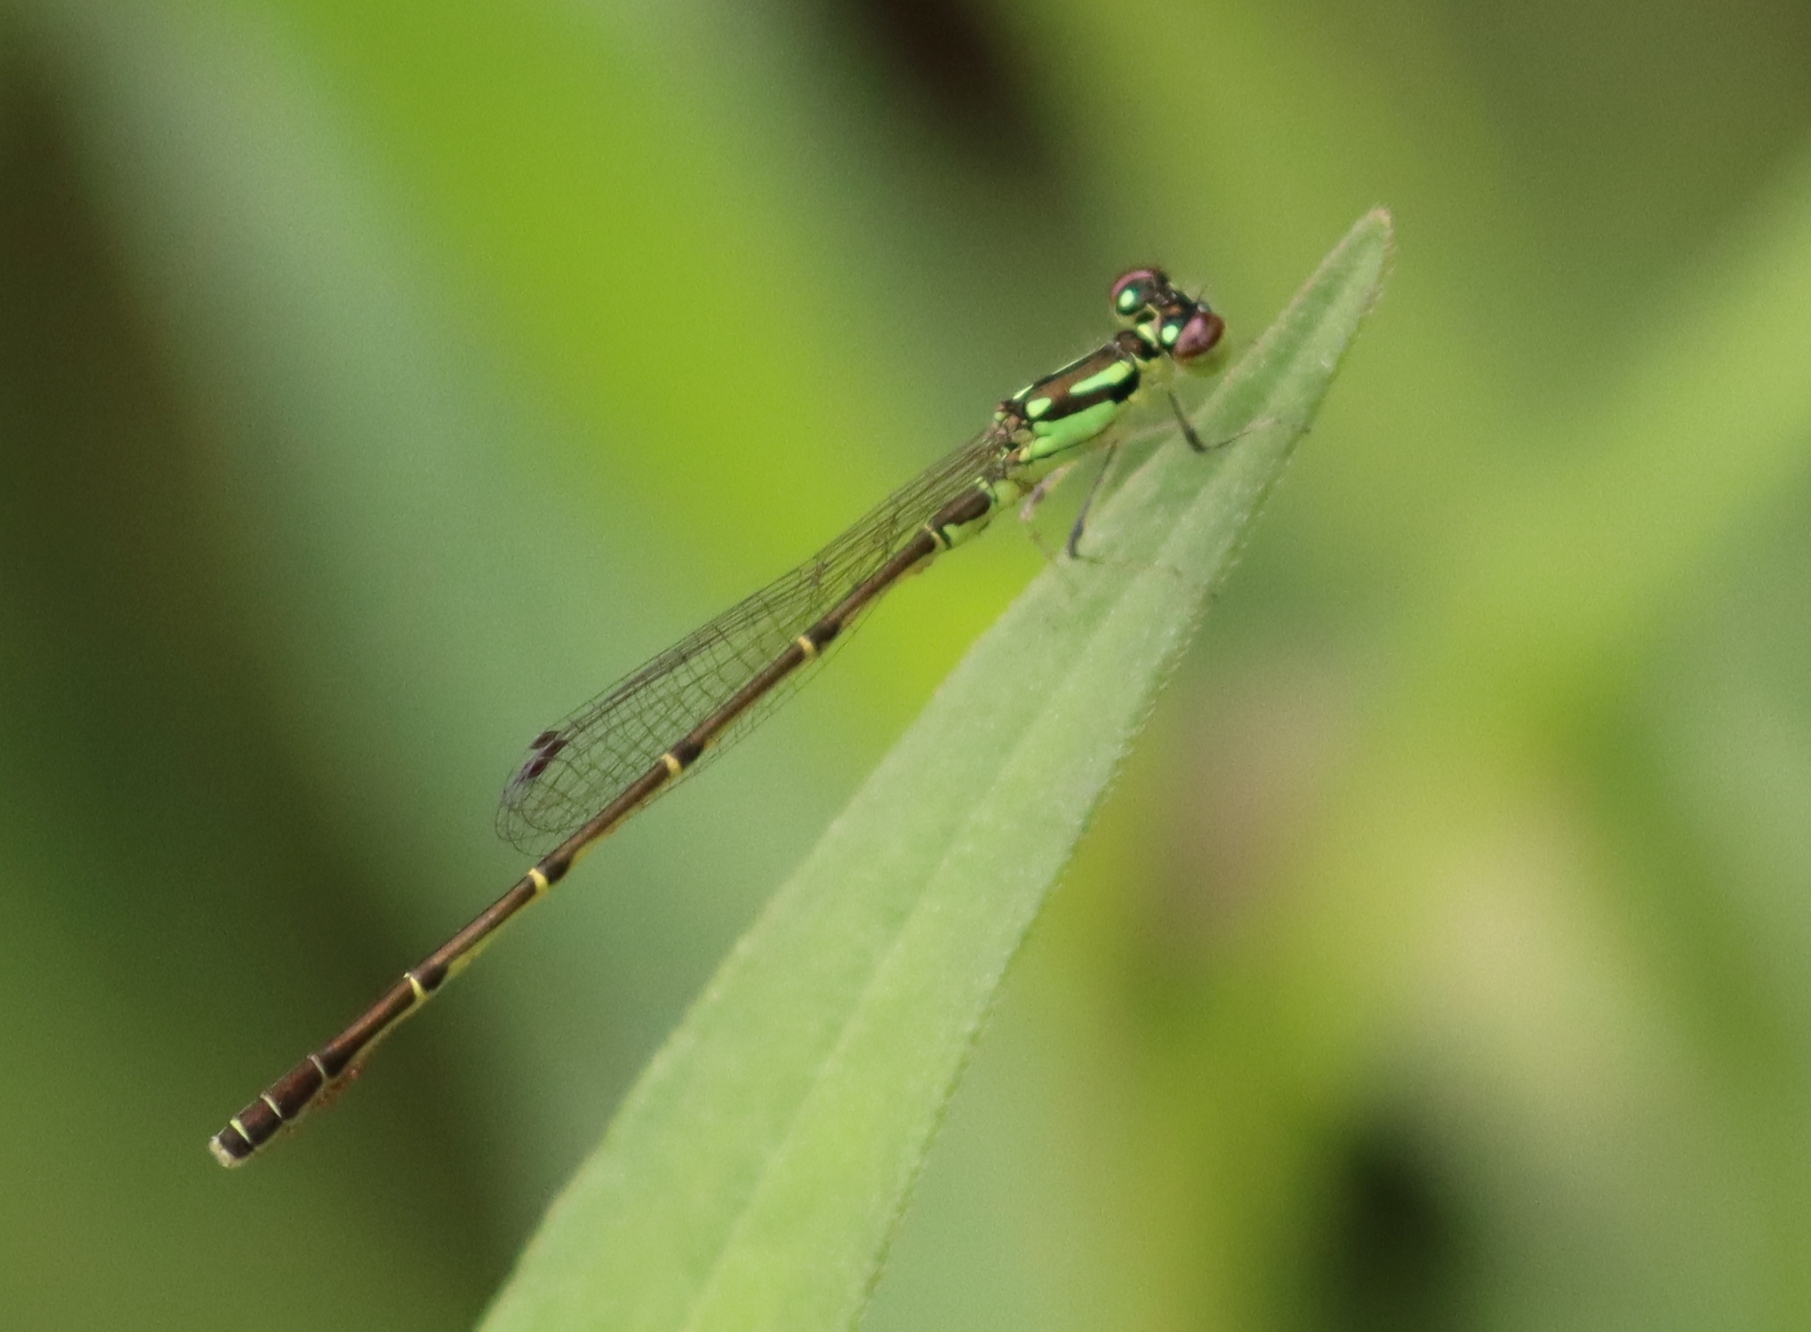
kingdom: Animalia
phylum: Arthropoda
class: Insecta
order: Odonata
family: Coenagrionidae
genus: Ischnura
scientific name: Ischnura posita
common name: Fragile forktail
